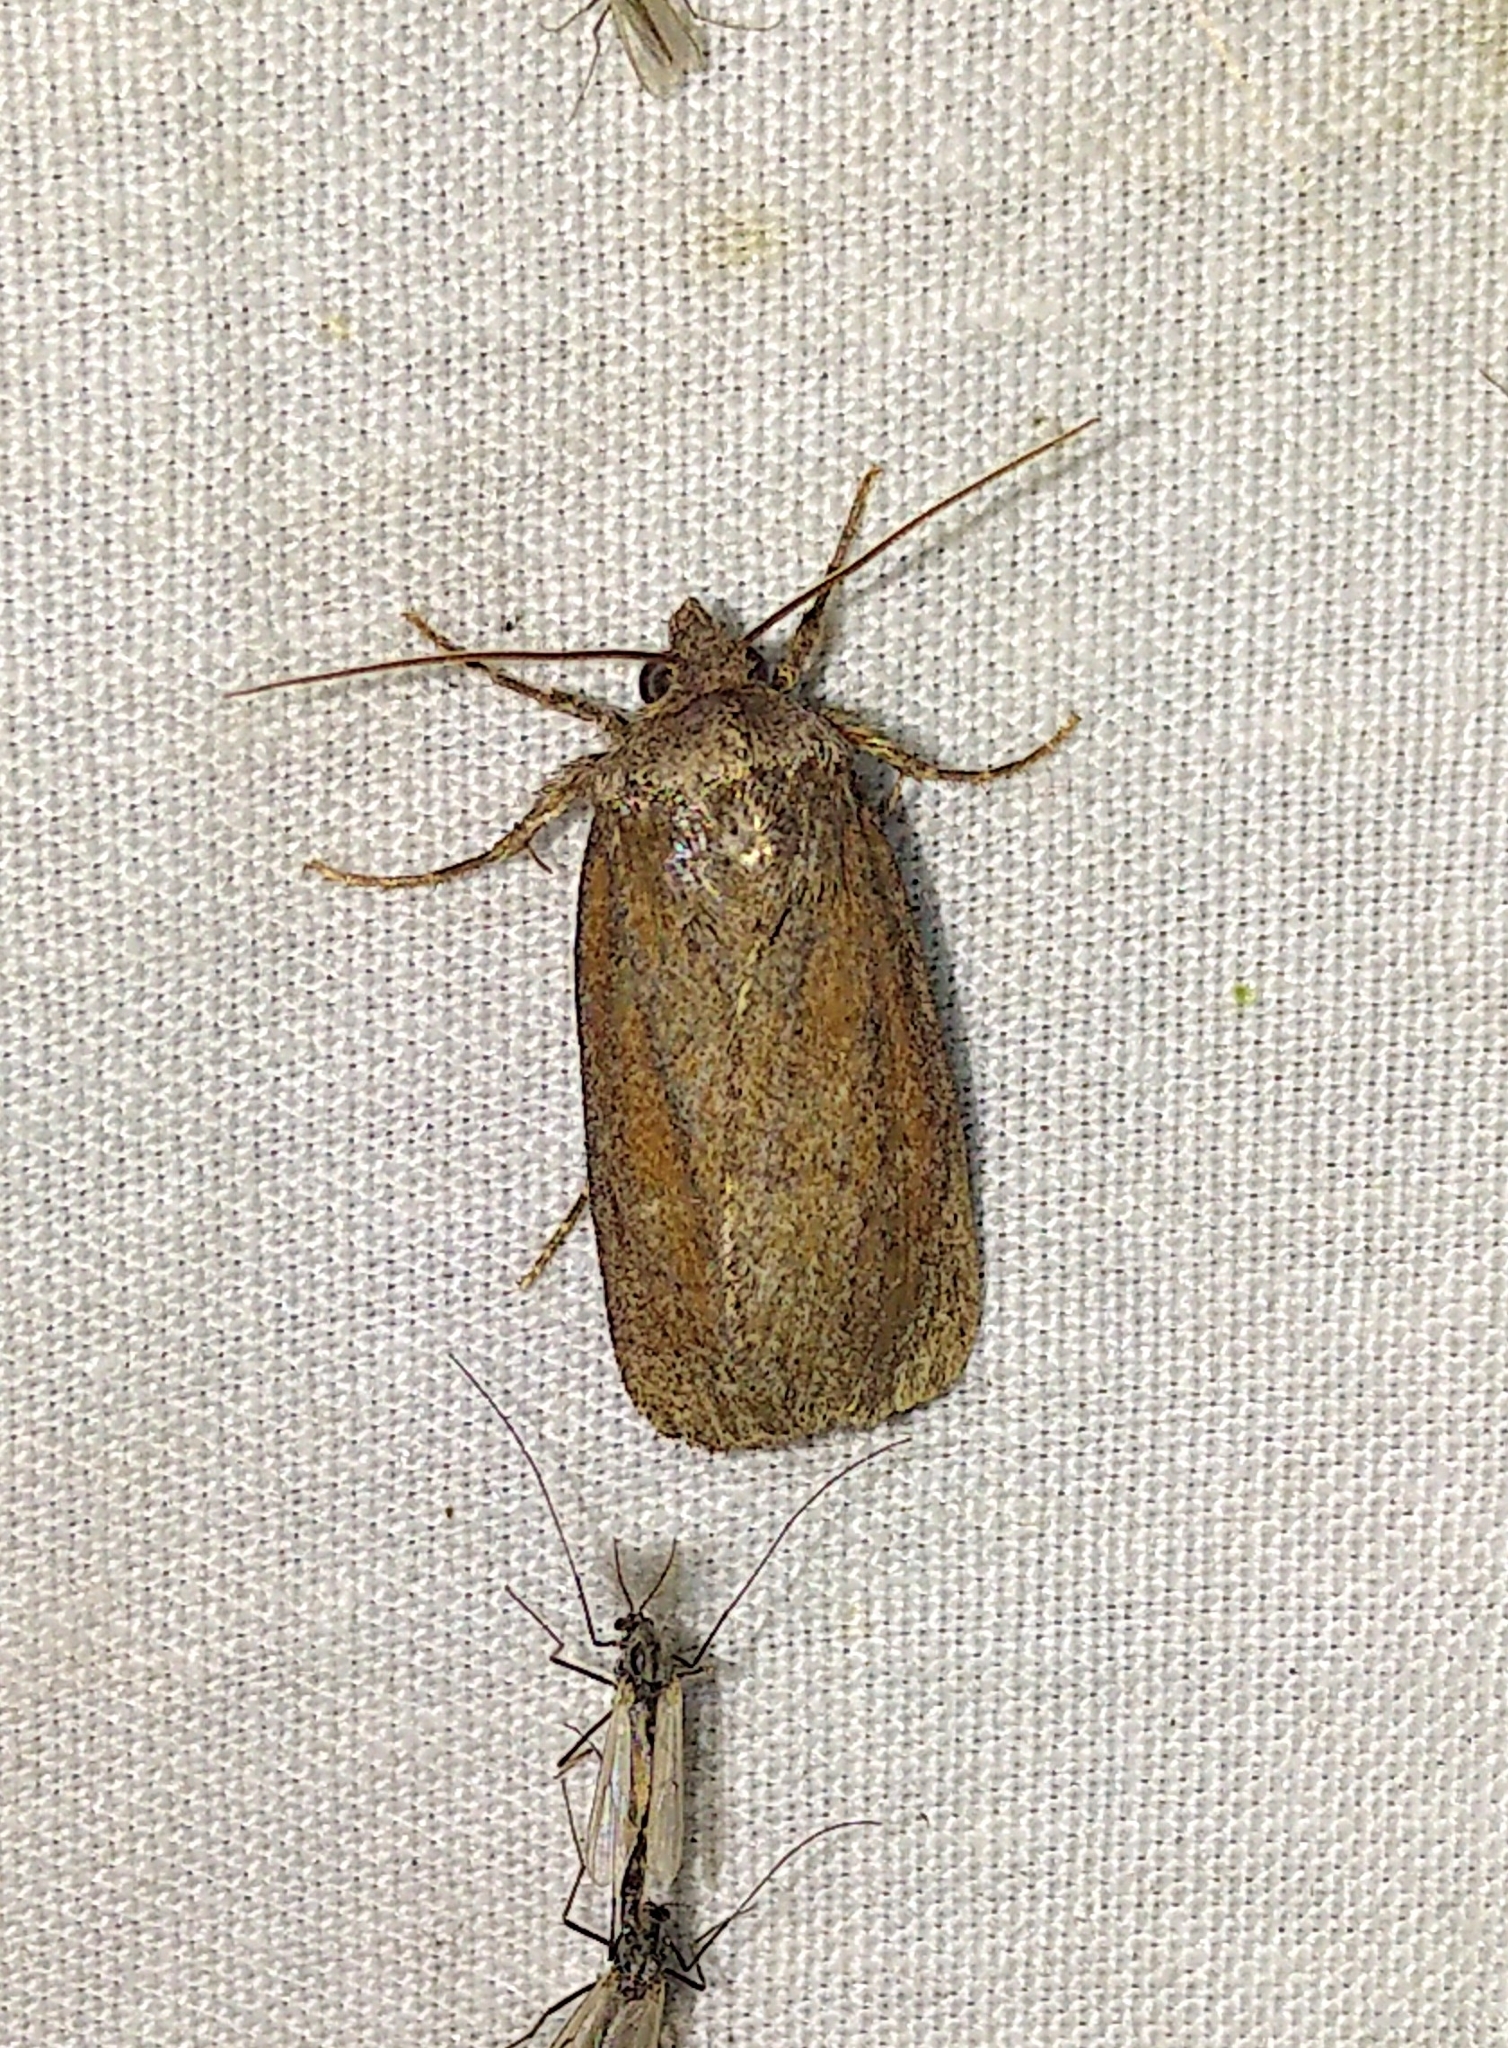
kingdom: Animalia
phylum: Arthropoda
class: Insecta
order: Lepidoptera
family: Noctuidae
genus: Sympistis
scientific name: Sympistis stabilis
